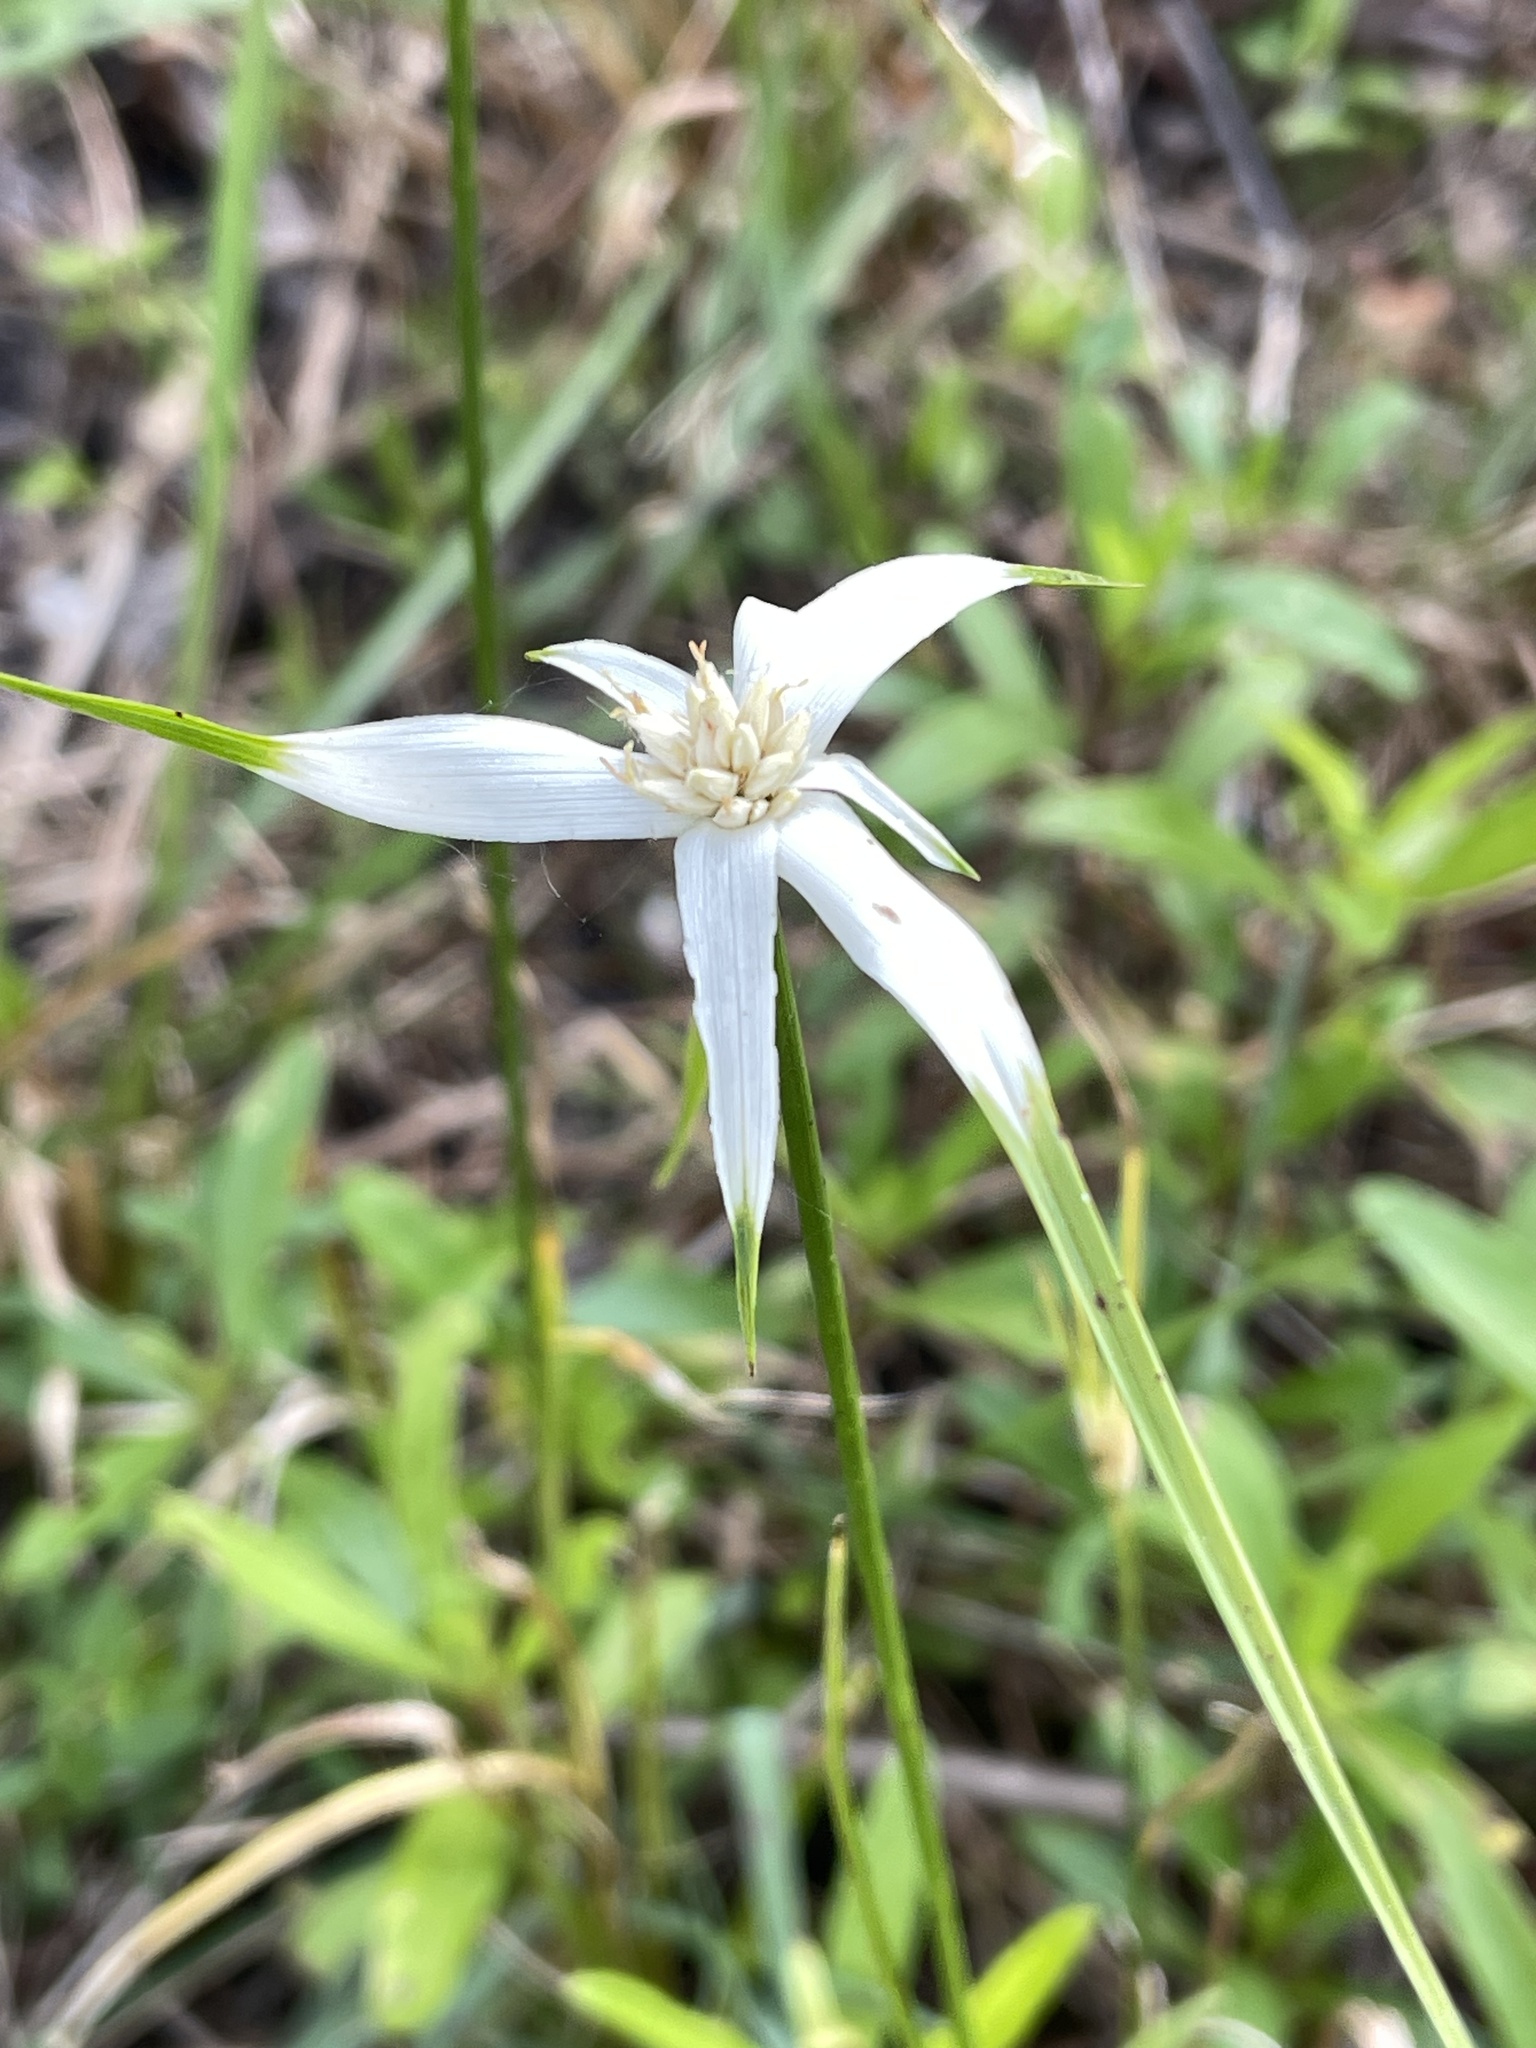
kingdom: Plantae
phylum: Tracheophyta
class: Liliopsida
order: Poales
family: Cyperaceae
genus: Rhynchospora
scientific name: Rhynchospora colorata
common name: Star sedge
